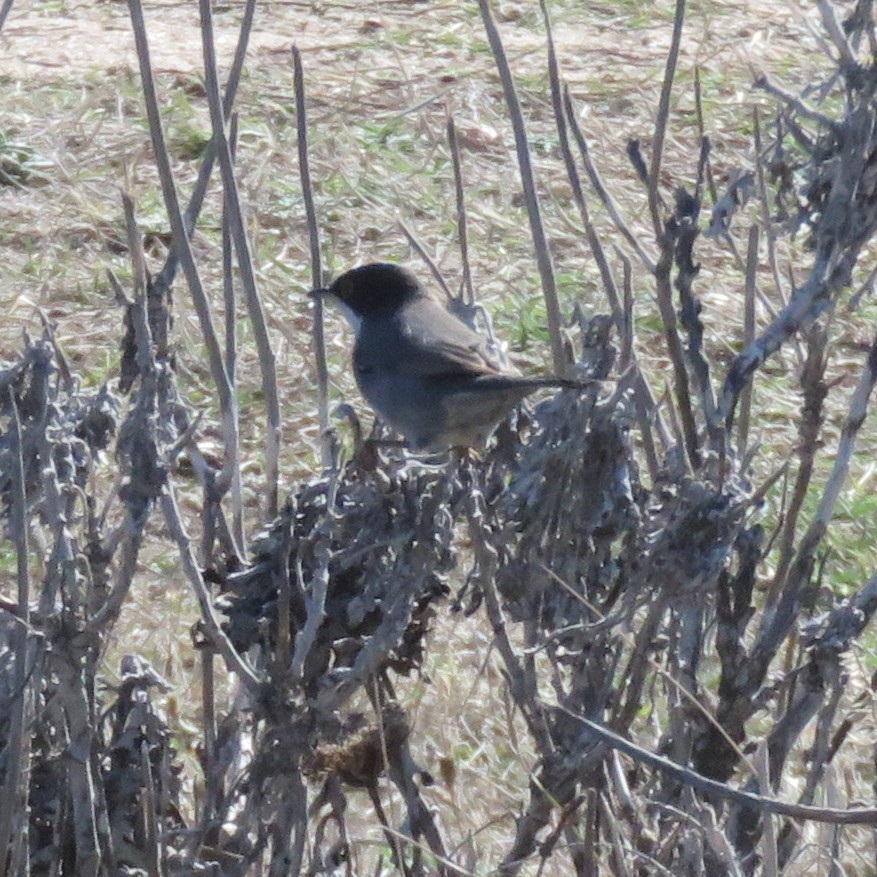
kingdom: Animalia
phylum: Chordata
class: Aves
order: Passeriformes
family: Sylviidae
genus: Curruca
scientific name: Curruca melanocephala
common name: Sardinian warbler
